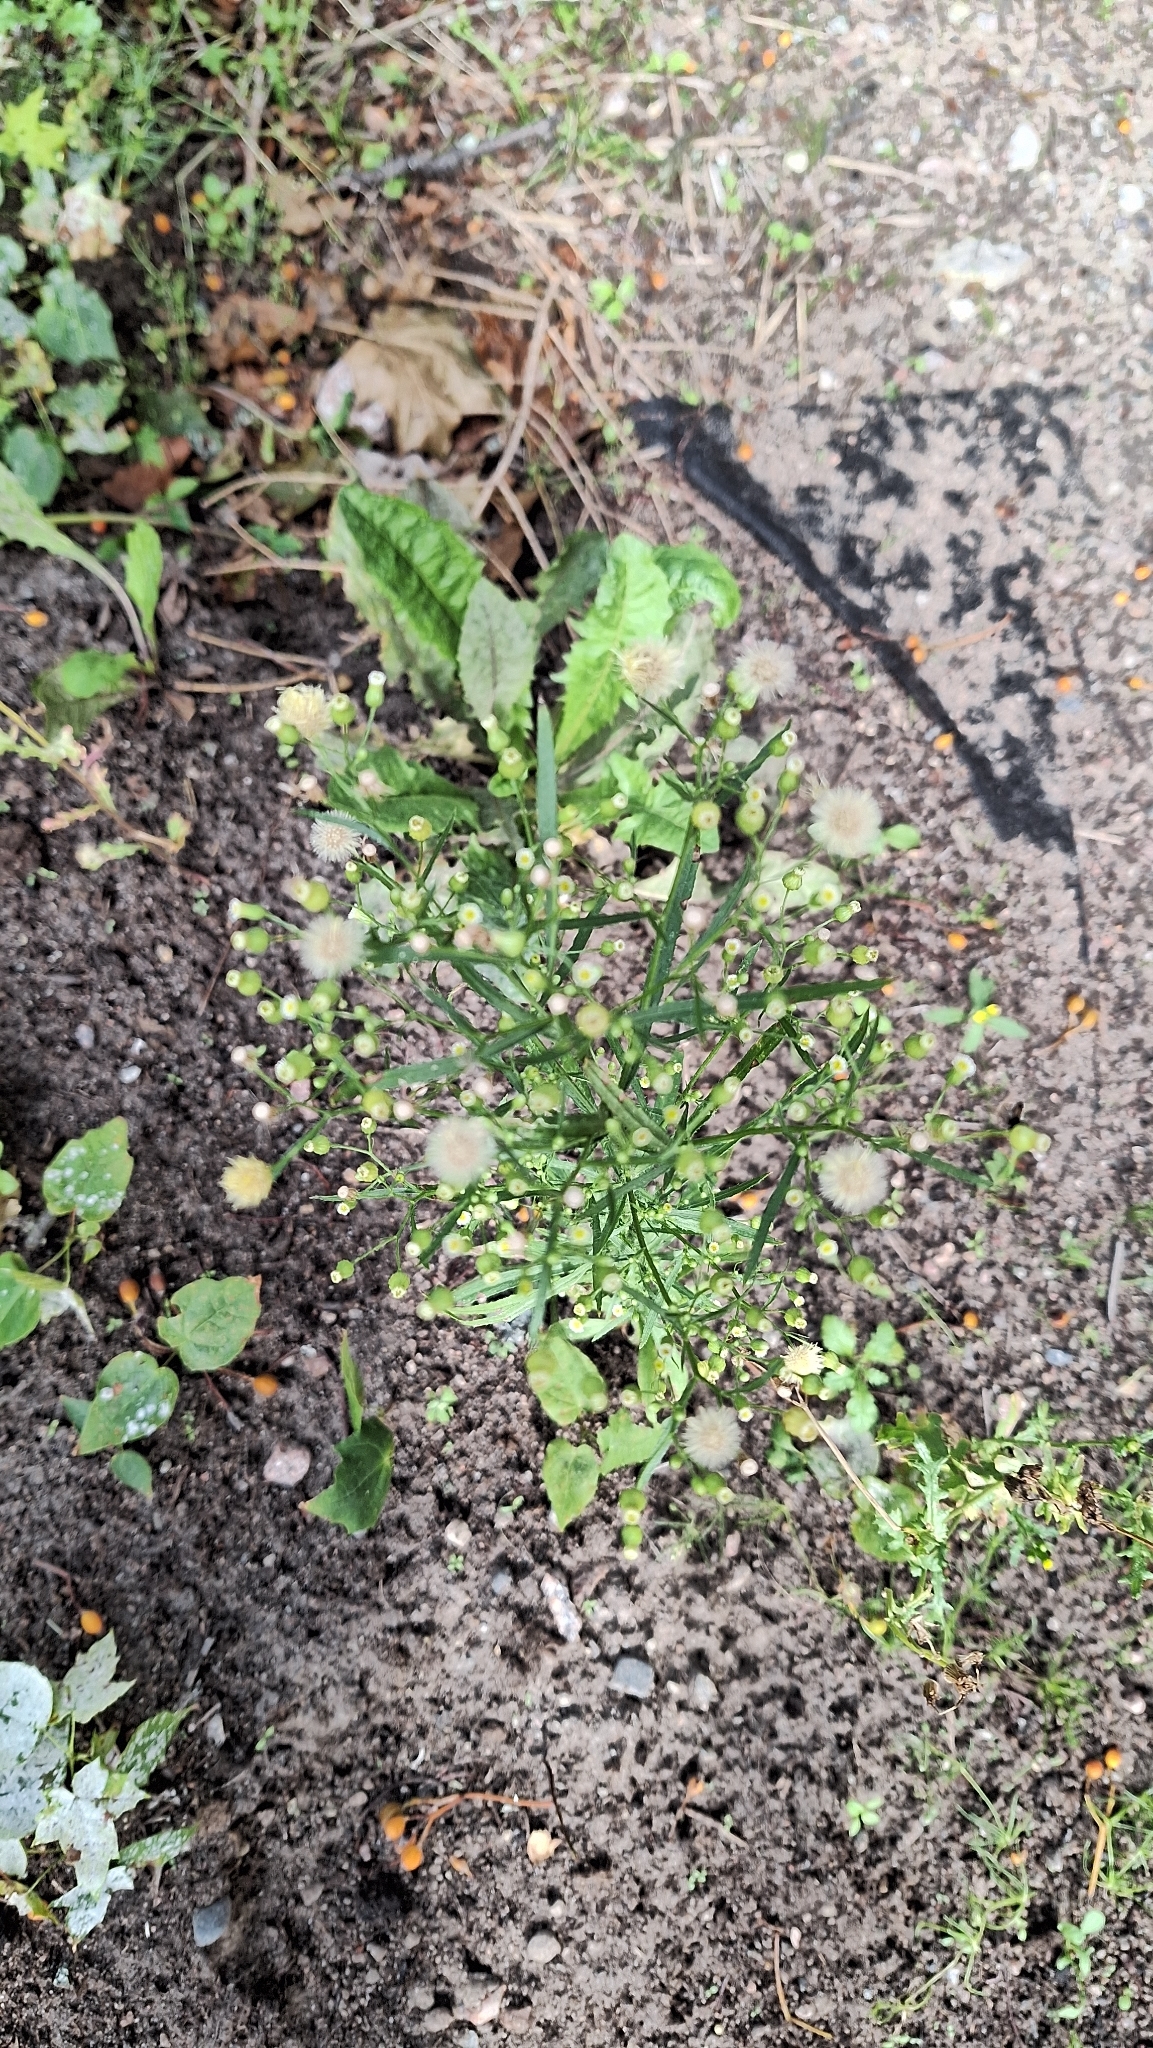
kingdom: Plantae
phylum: Tracheophyta
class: Magnoliopsida
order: Asterales
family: Asteraceae
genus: Erigeron
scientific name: Erigeron canadensis
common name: Canadian fleabane
